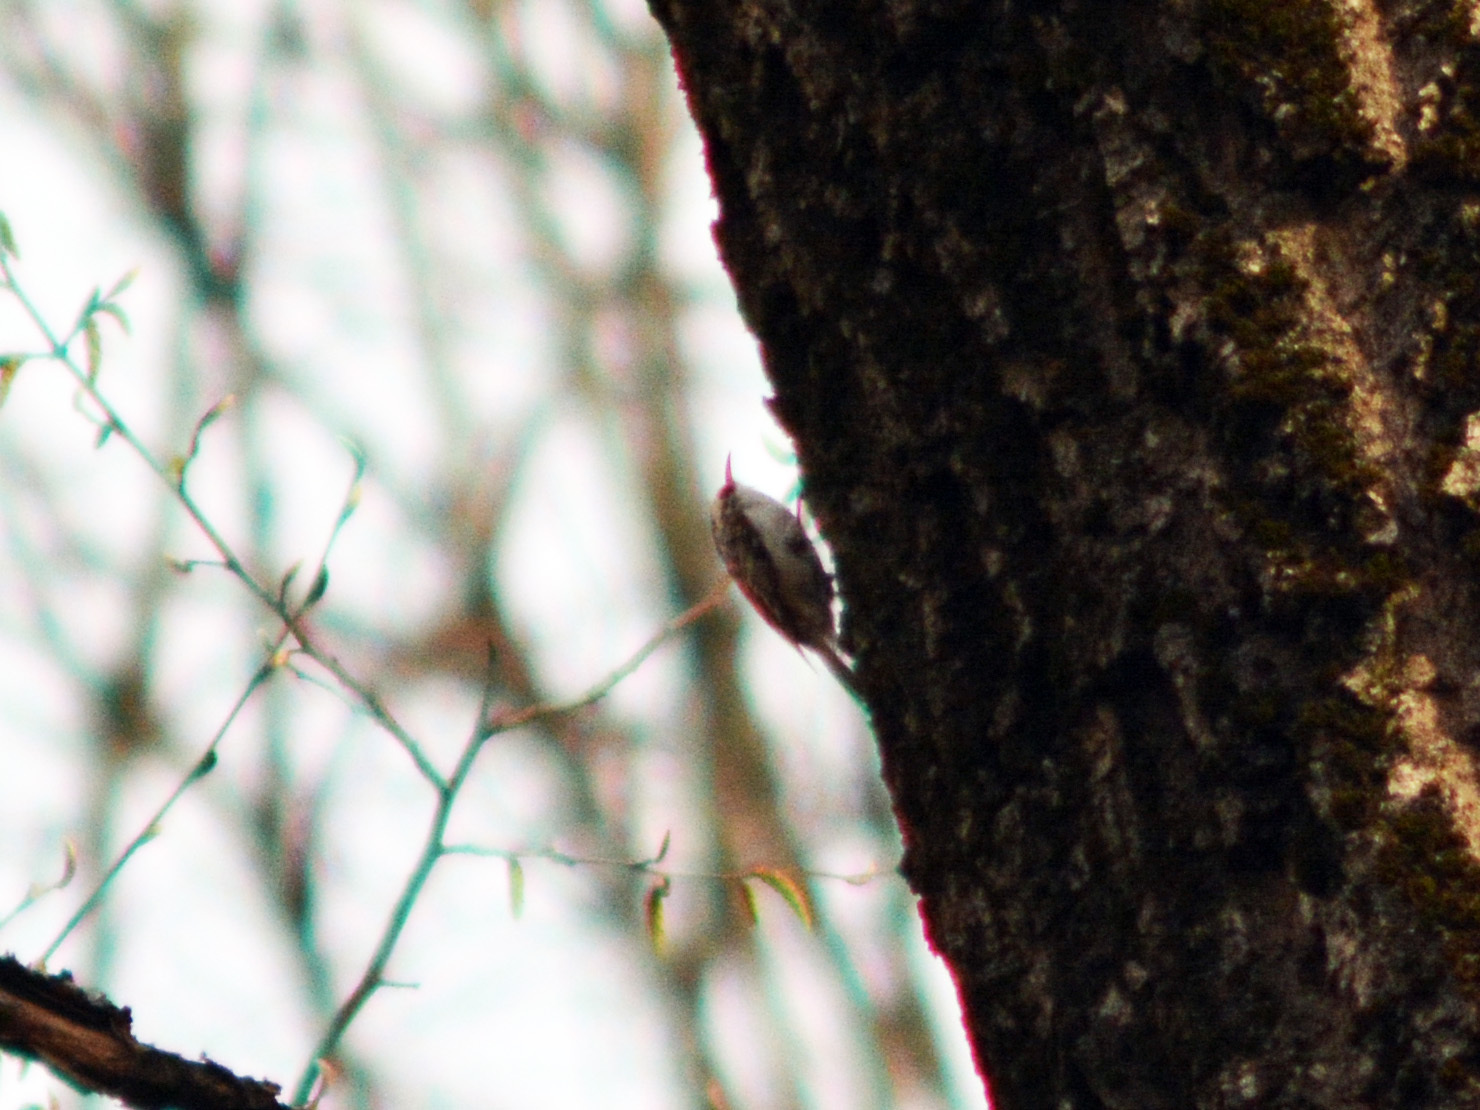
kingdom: Animalia
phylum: Chordata
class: Aves
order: Passeriformes
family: Certhiidae
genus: Certhia
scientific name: Certhia familiaris
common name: Eurasian treecreeper
